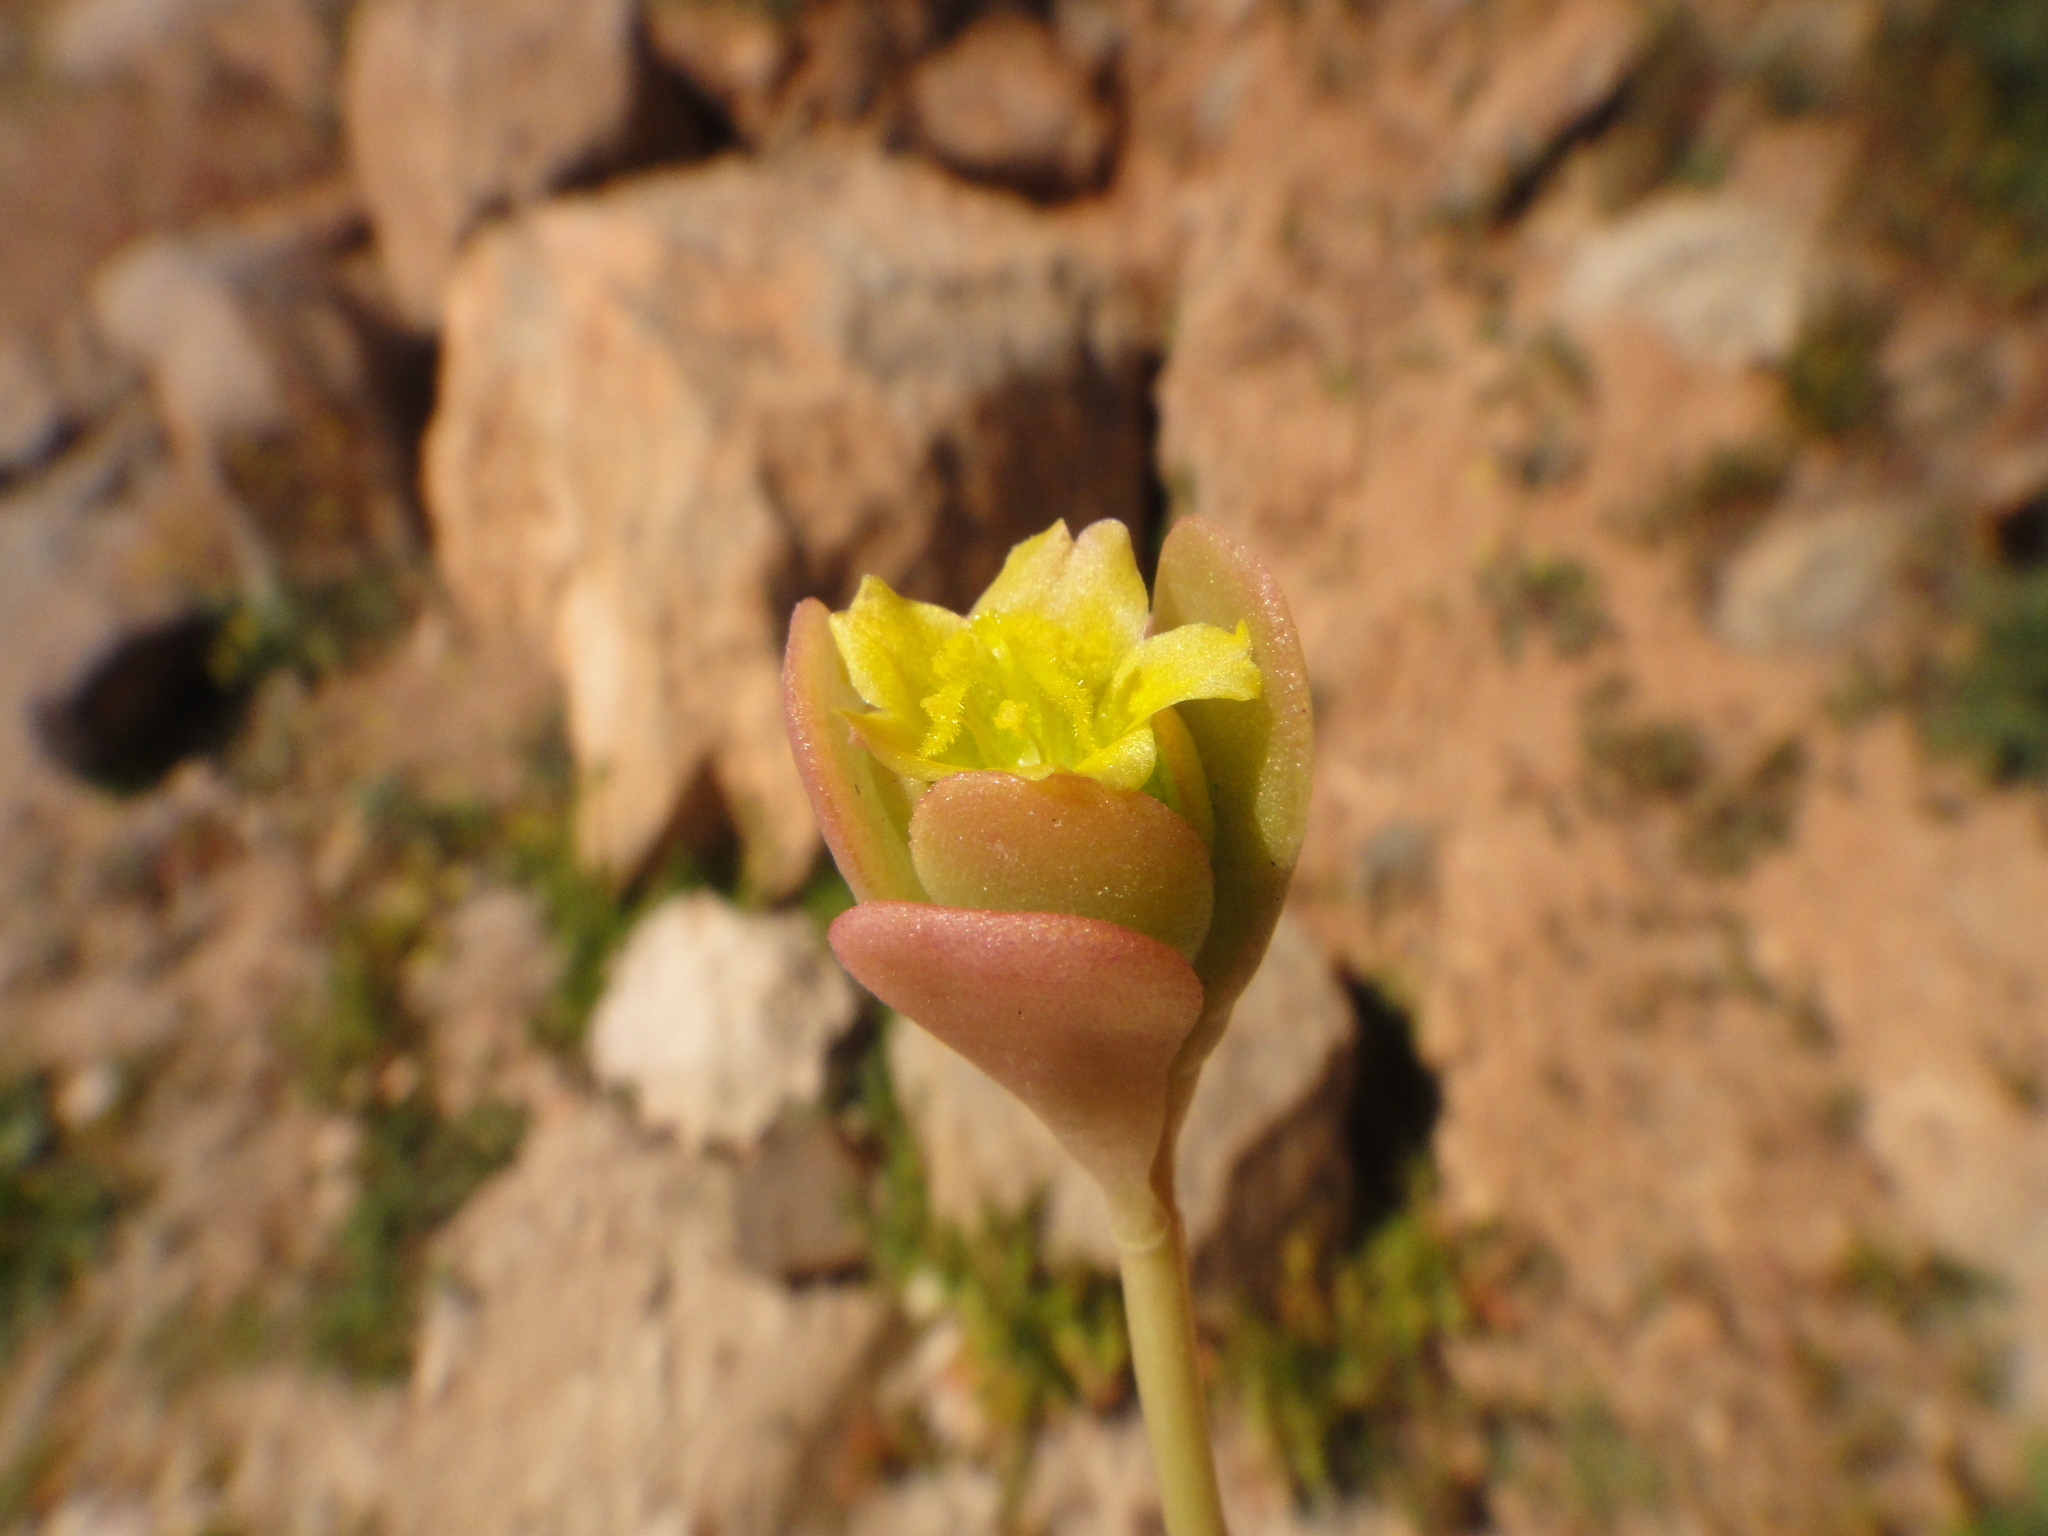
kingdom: Plantae
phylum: Tracheophyta
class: Magnoliopsida
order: Caryophyllales
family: Portulacaceae
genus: Portulaca
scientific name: Portulaca oleracea
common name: Common purslane
